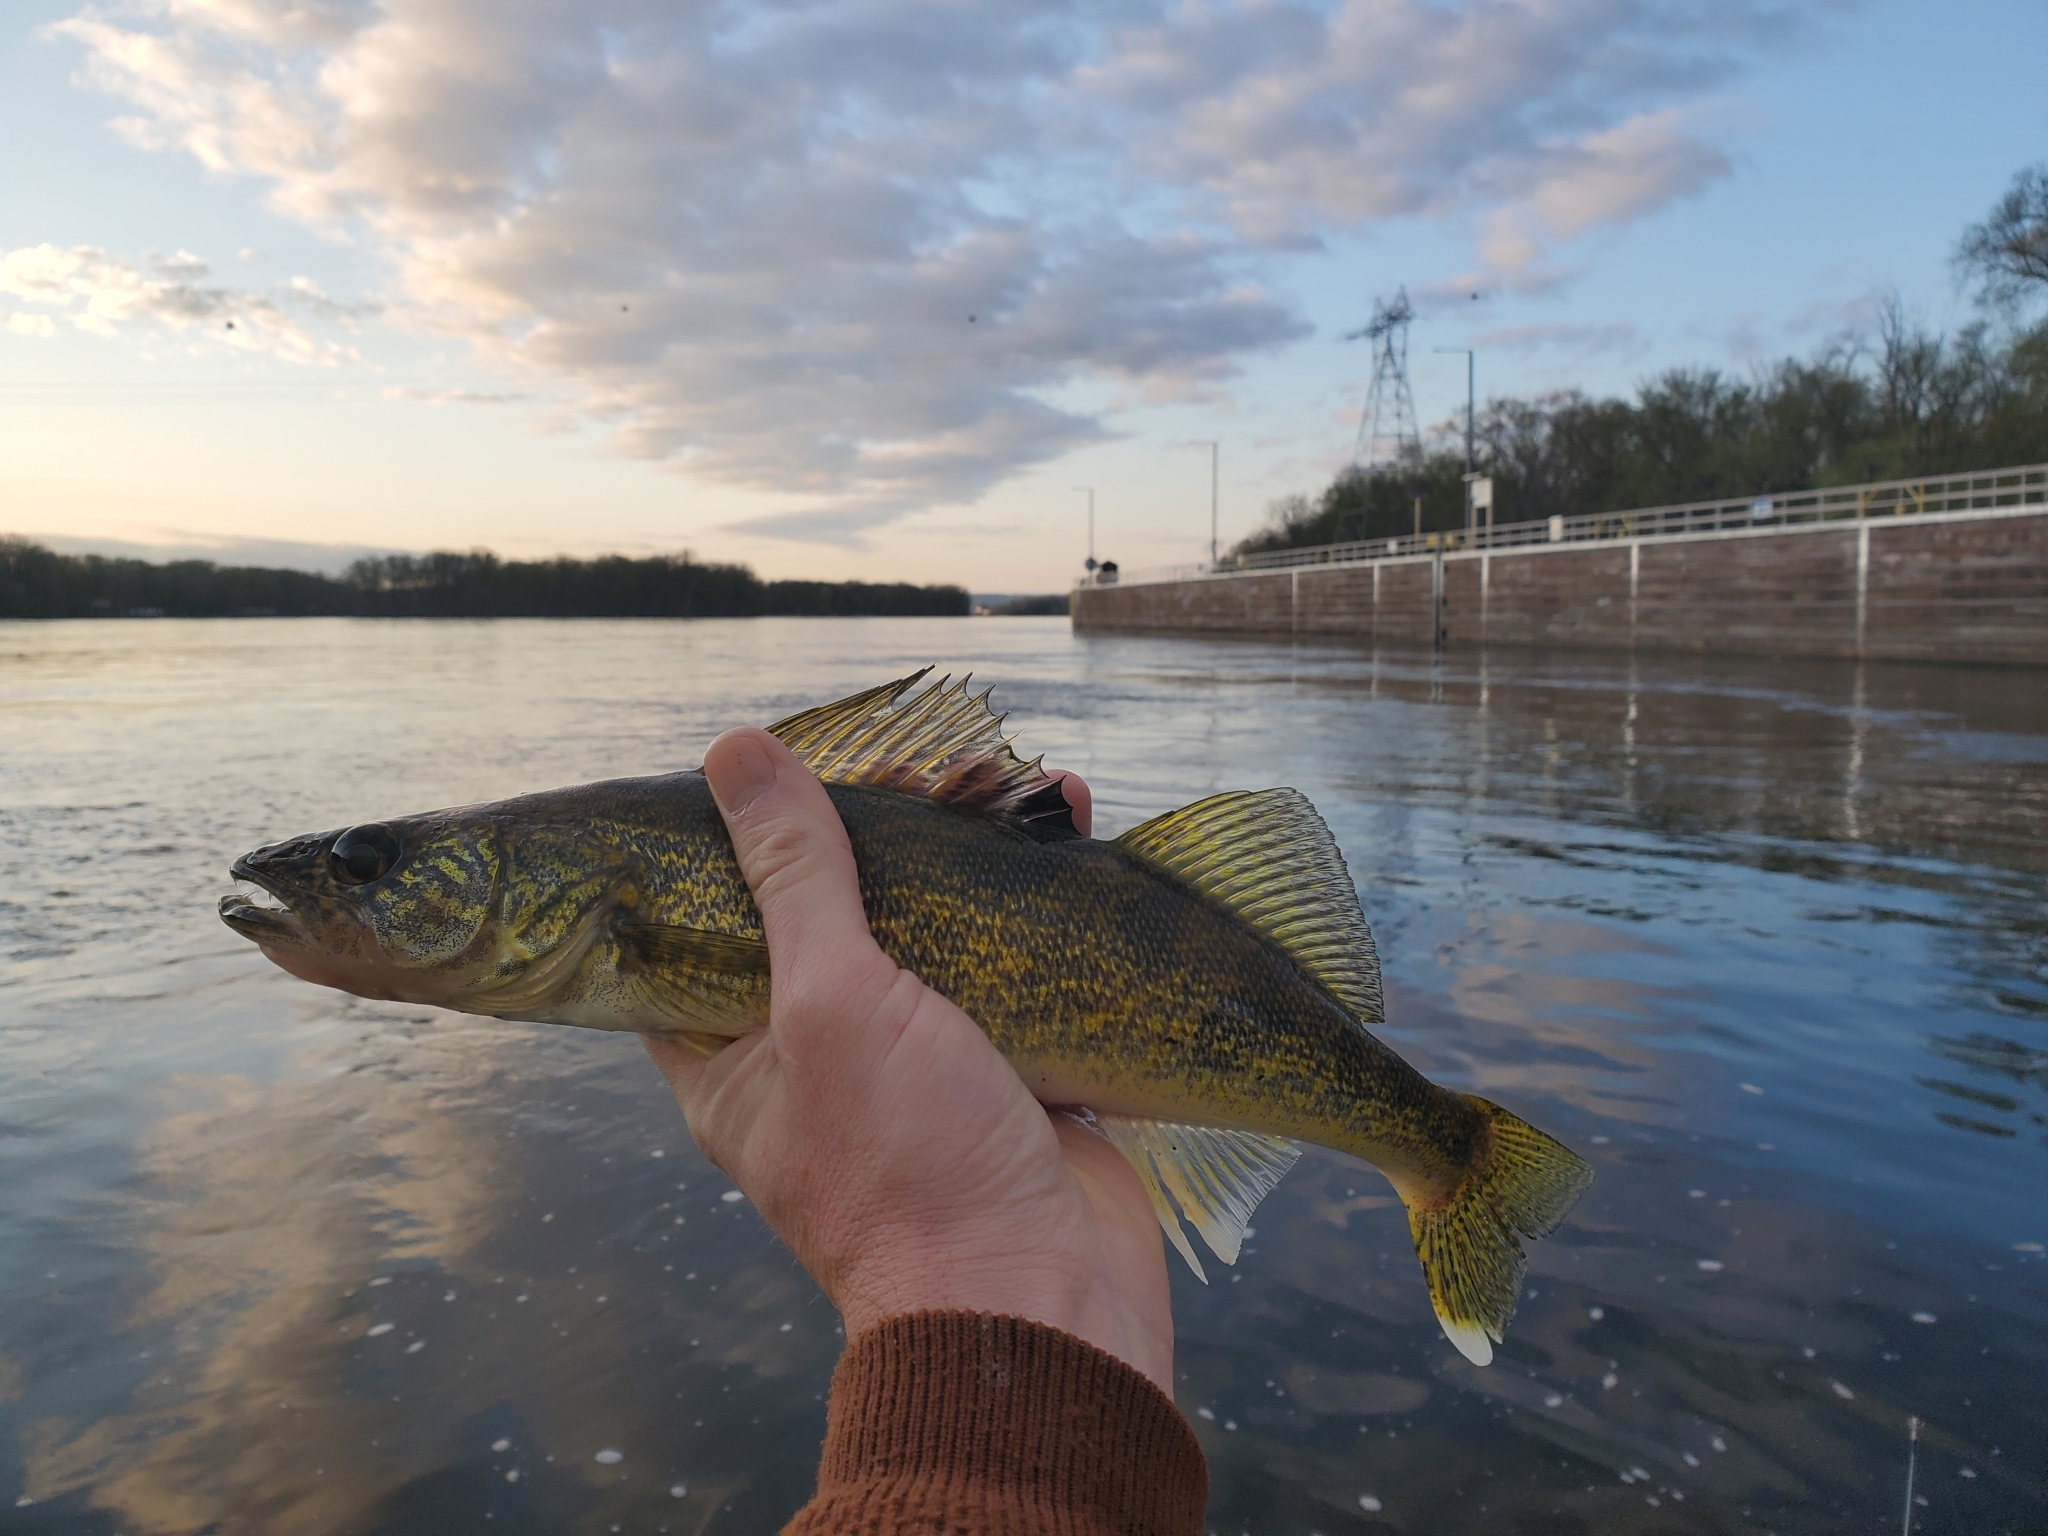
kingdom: Animalia
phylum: Chordata
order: Perciformes
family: Percidae
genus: Sander
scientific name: Sander vitreus
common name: Walleye
